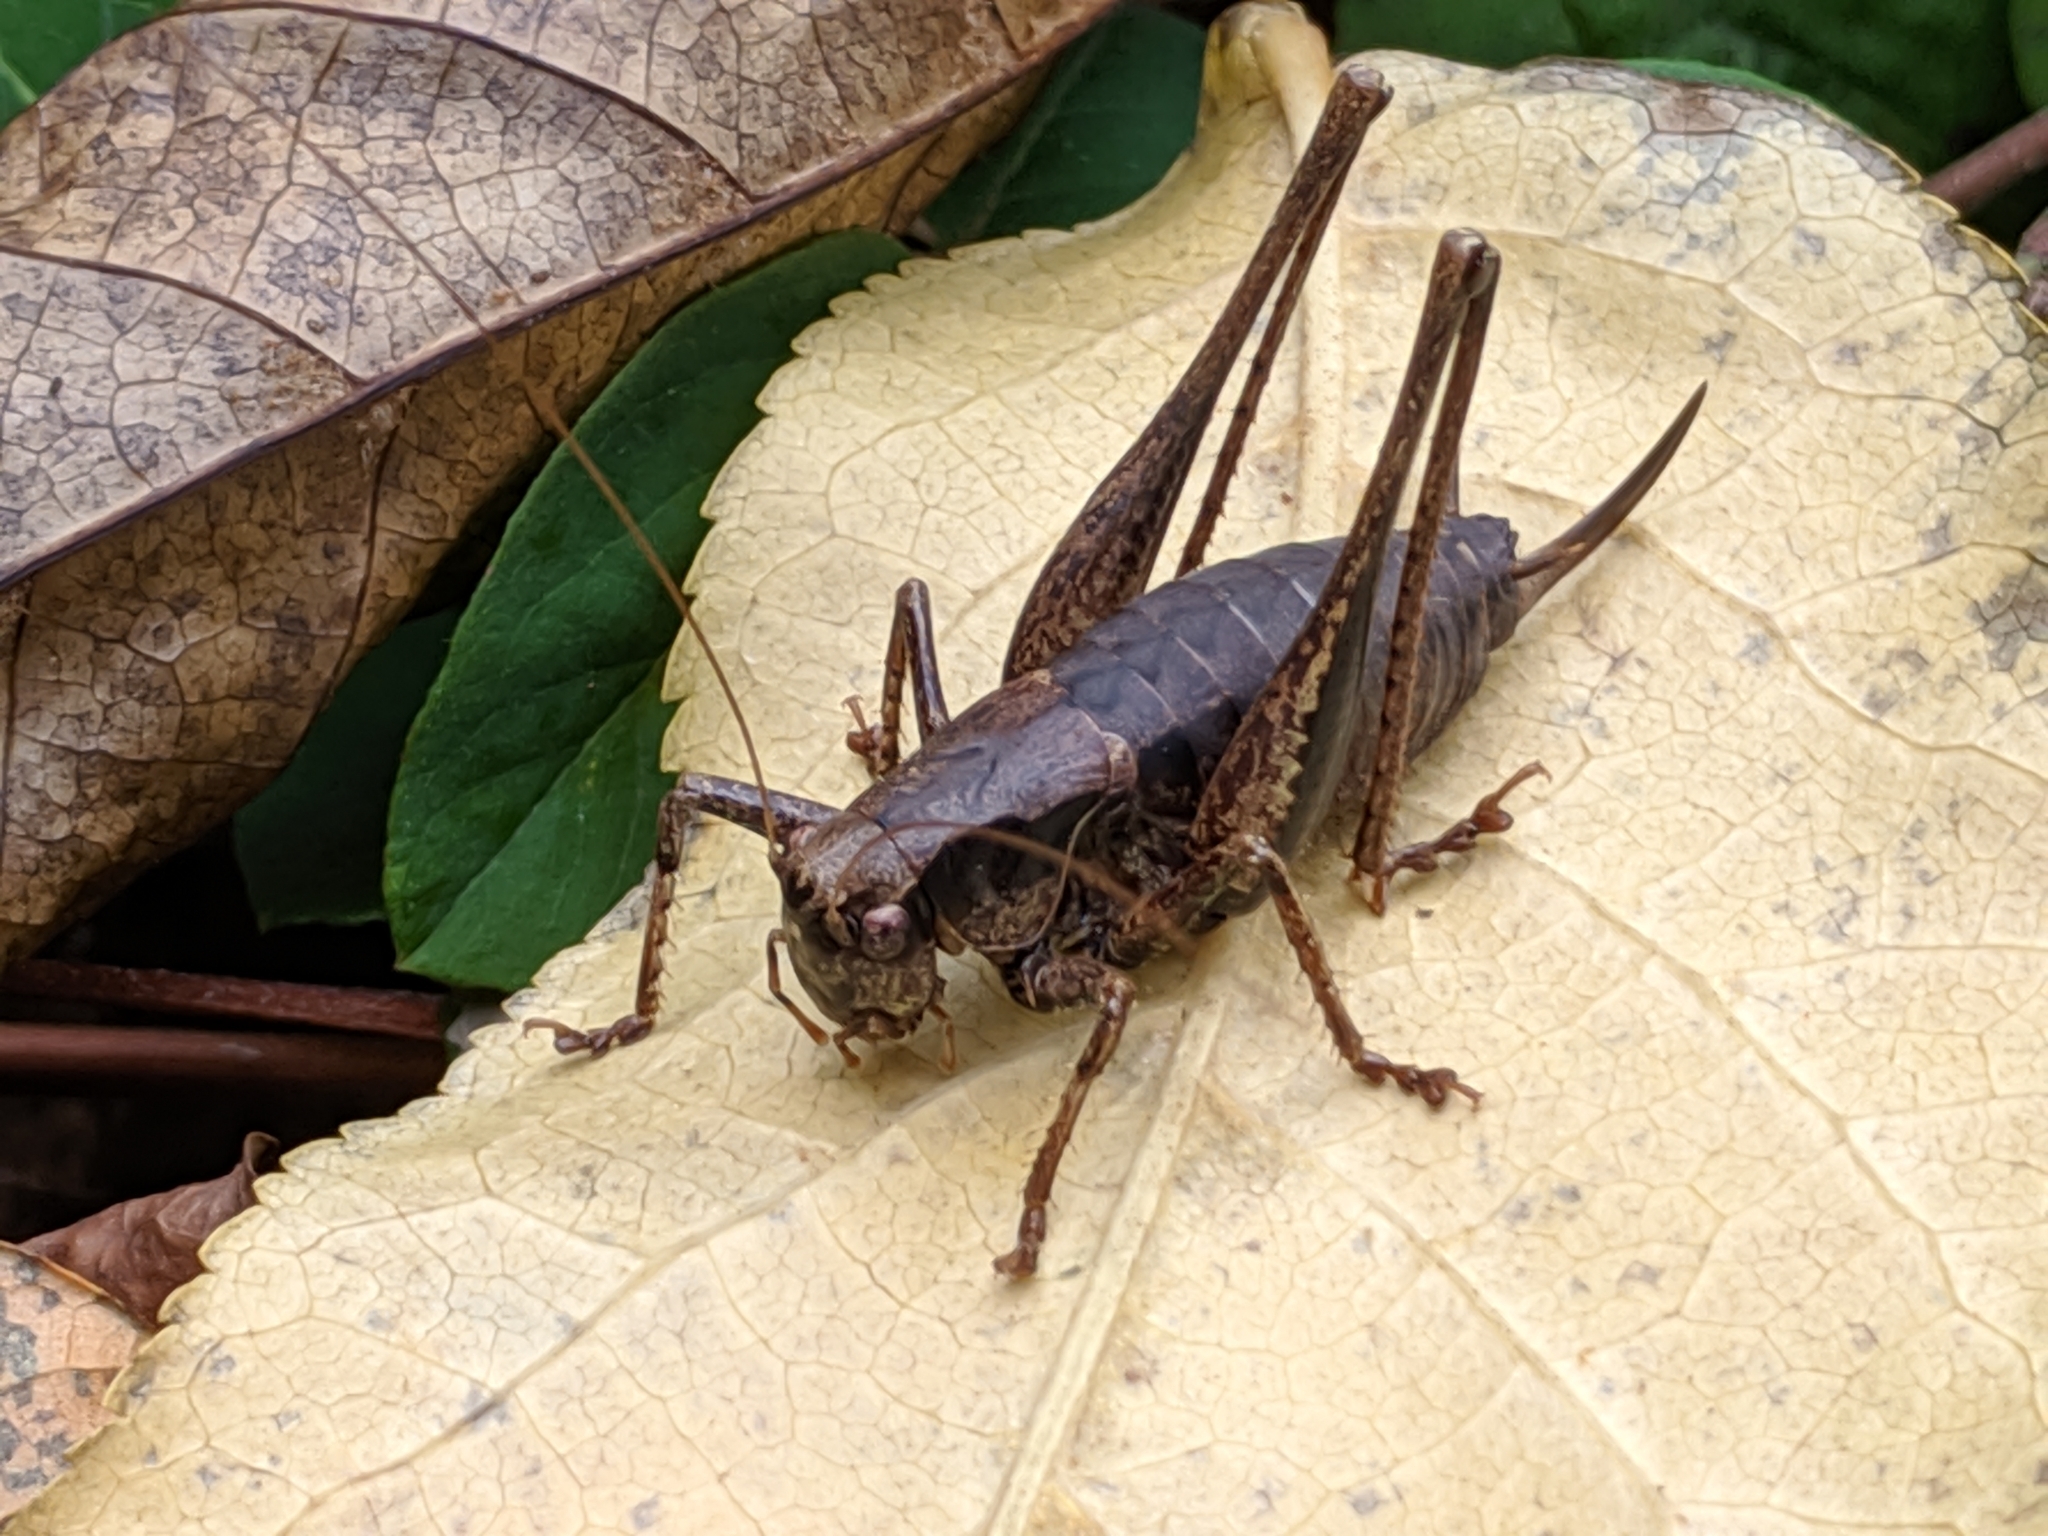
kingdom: Animalia
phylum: Arthropoda
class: Insecta
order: Orthoptera
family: Tettigoniidae
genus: Pholidoptera
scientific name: Pholidoptera griseoaptera
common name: Dark bush-cricket
